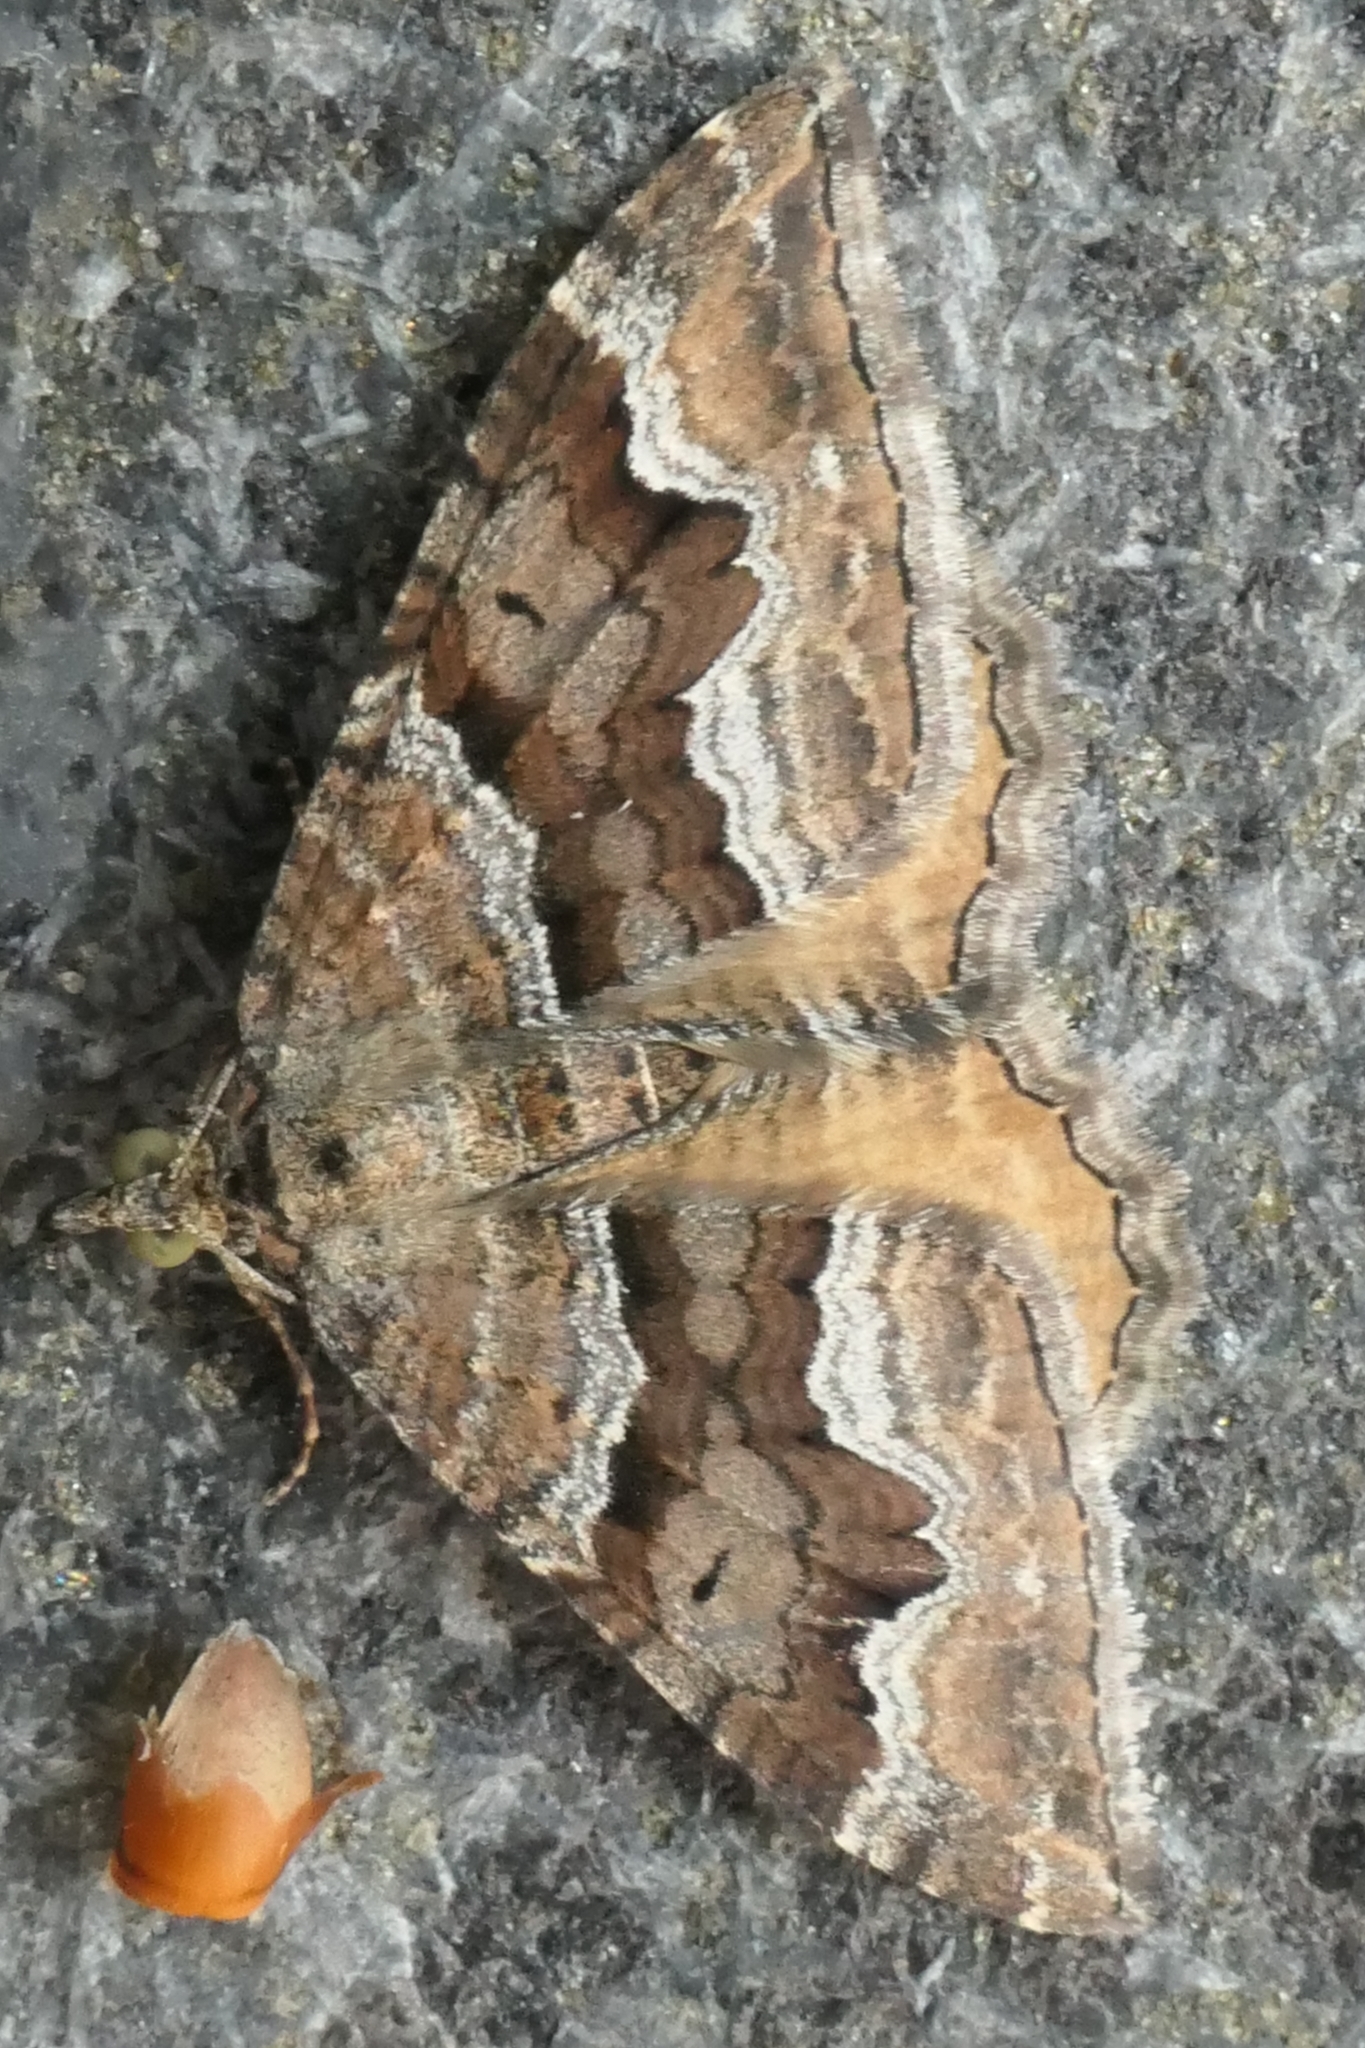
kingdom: Animalia
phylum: Arthropoda
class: Insecta
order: Lepidoptera
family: Geometridae
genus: Hydriomena
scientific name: Hydriomena deltoidata
